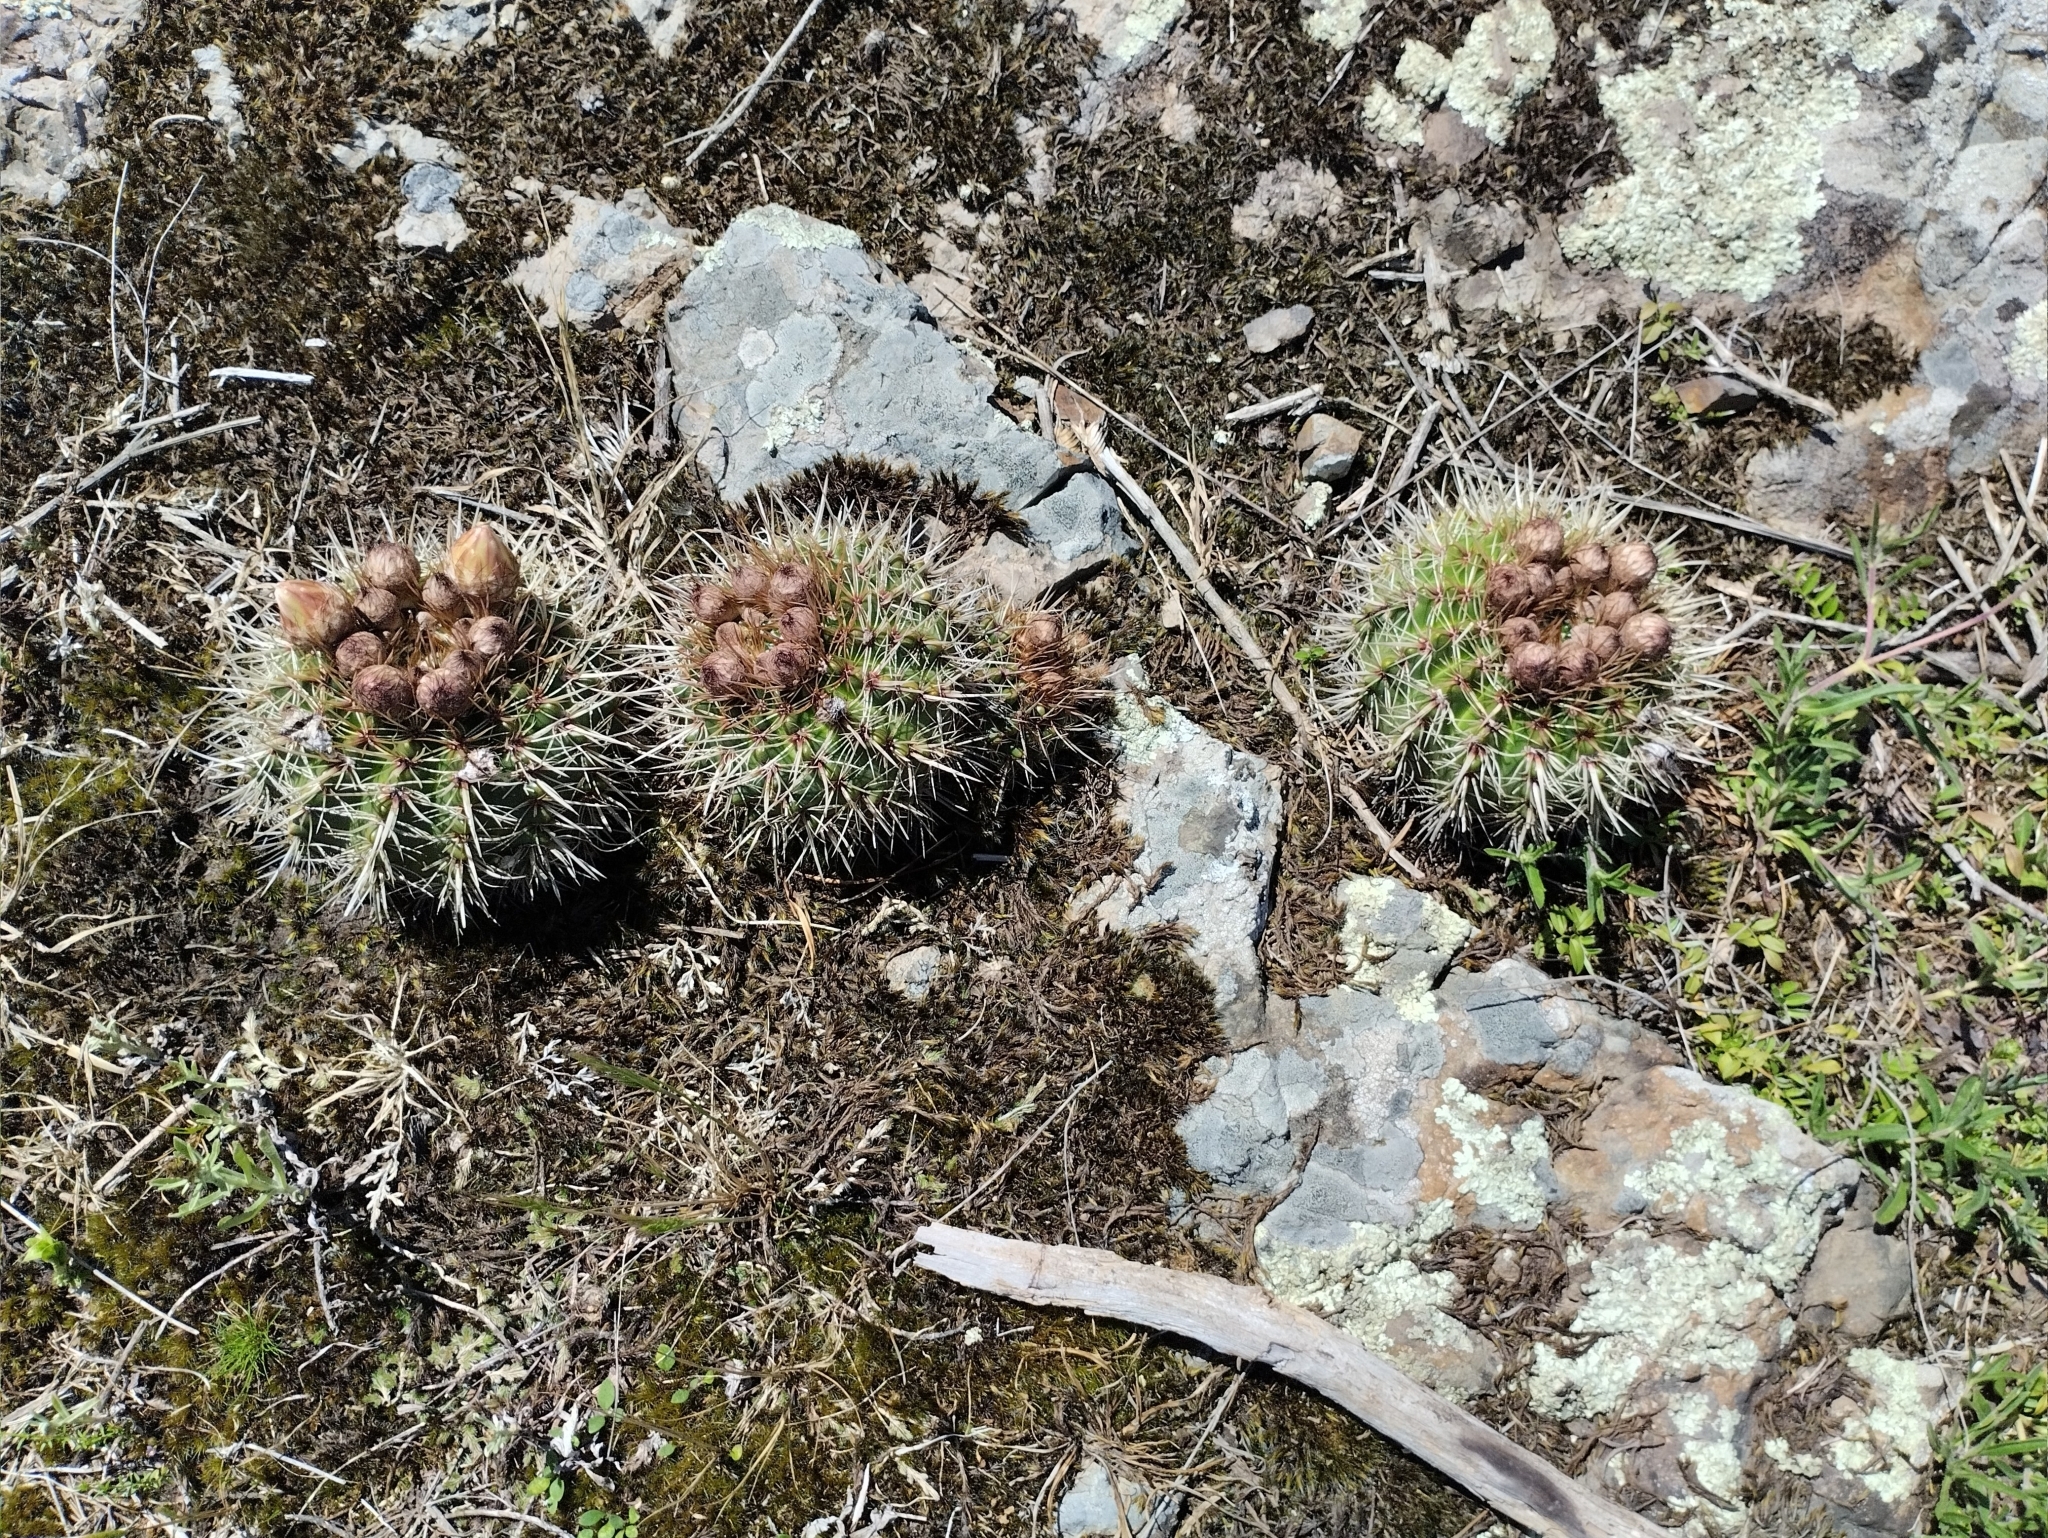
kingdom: Plantae
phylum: Tracheophyta
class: Magnoliopsida
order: Caryophyllales
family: Cactaceae
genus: Parodia
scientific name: Parodia mammulosa
